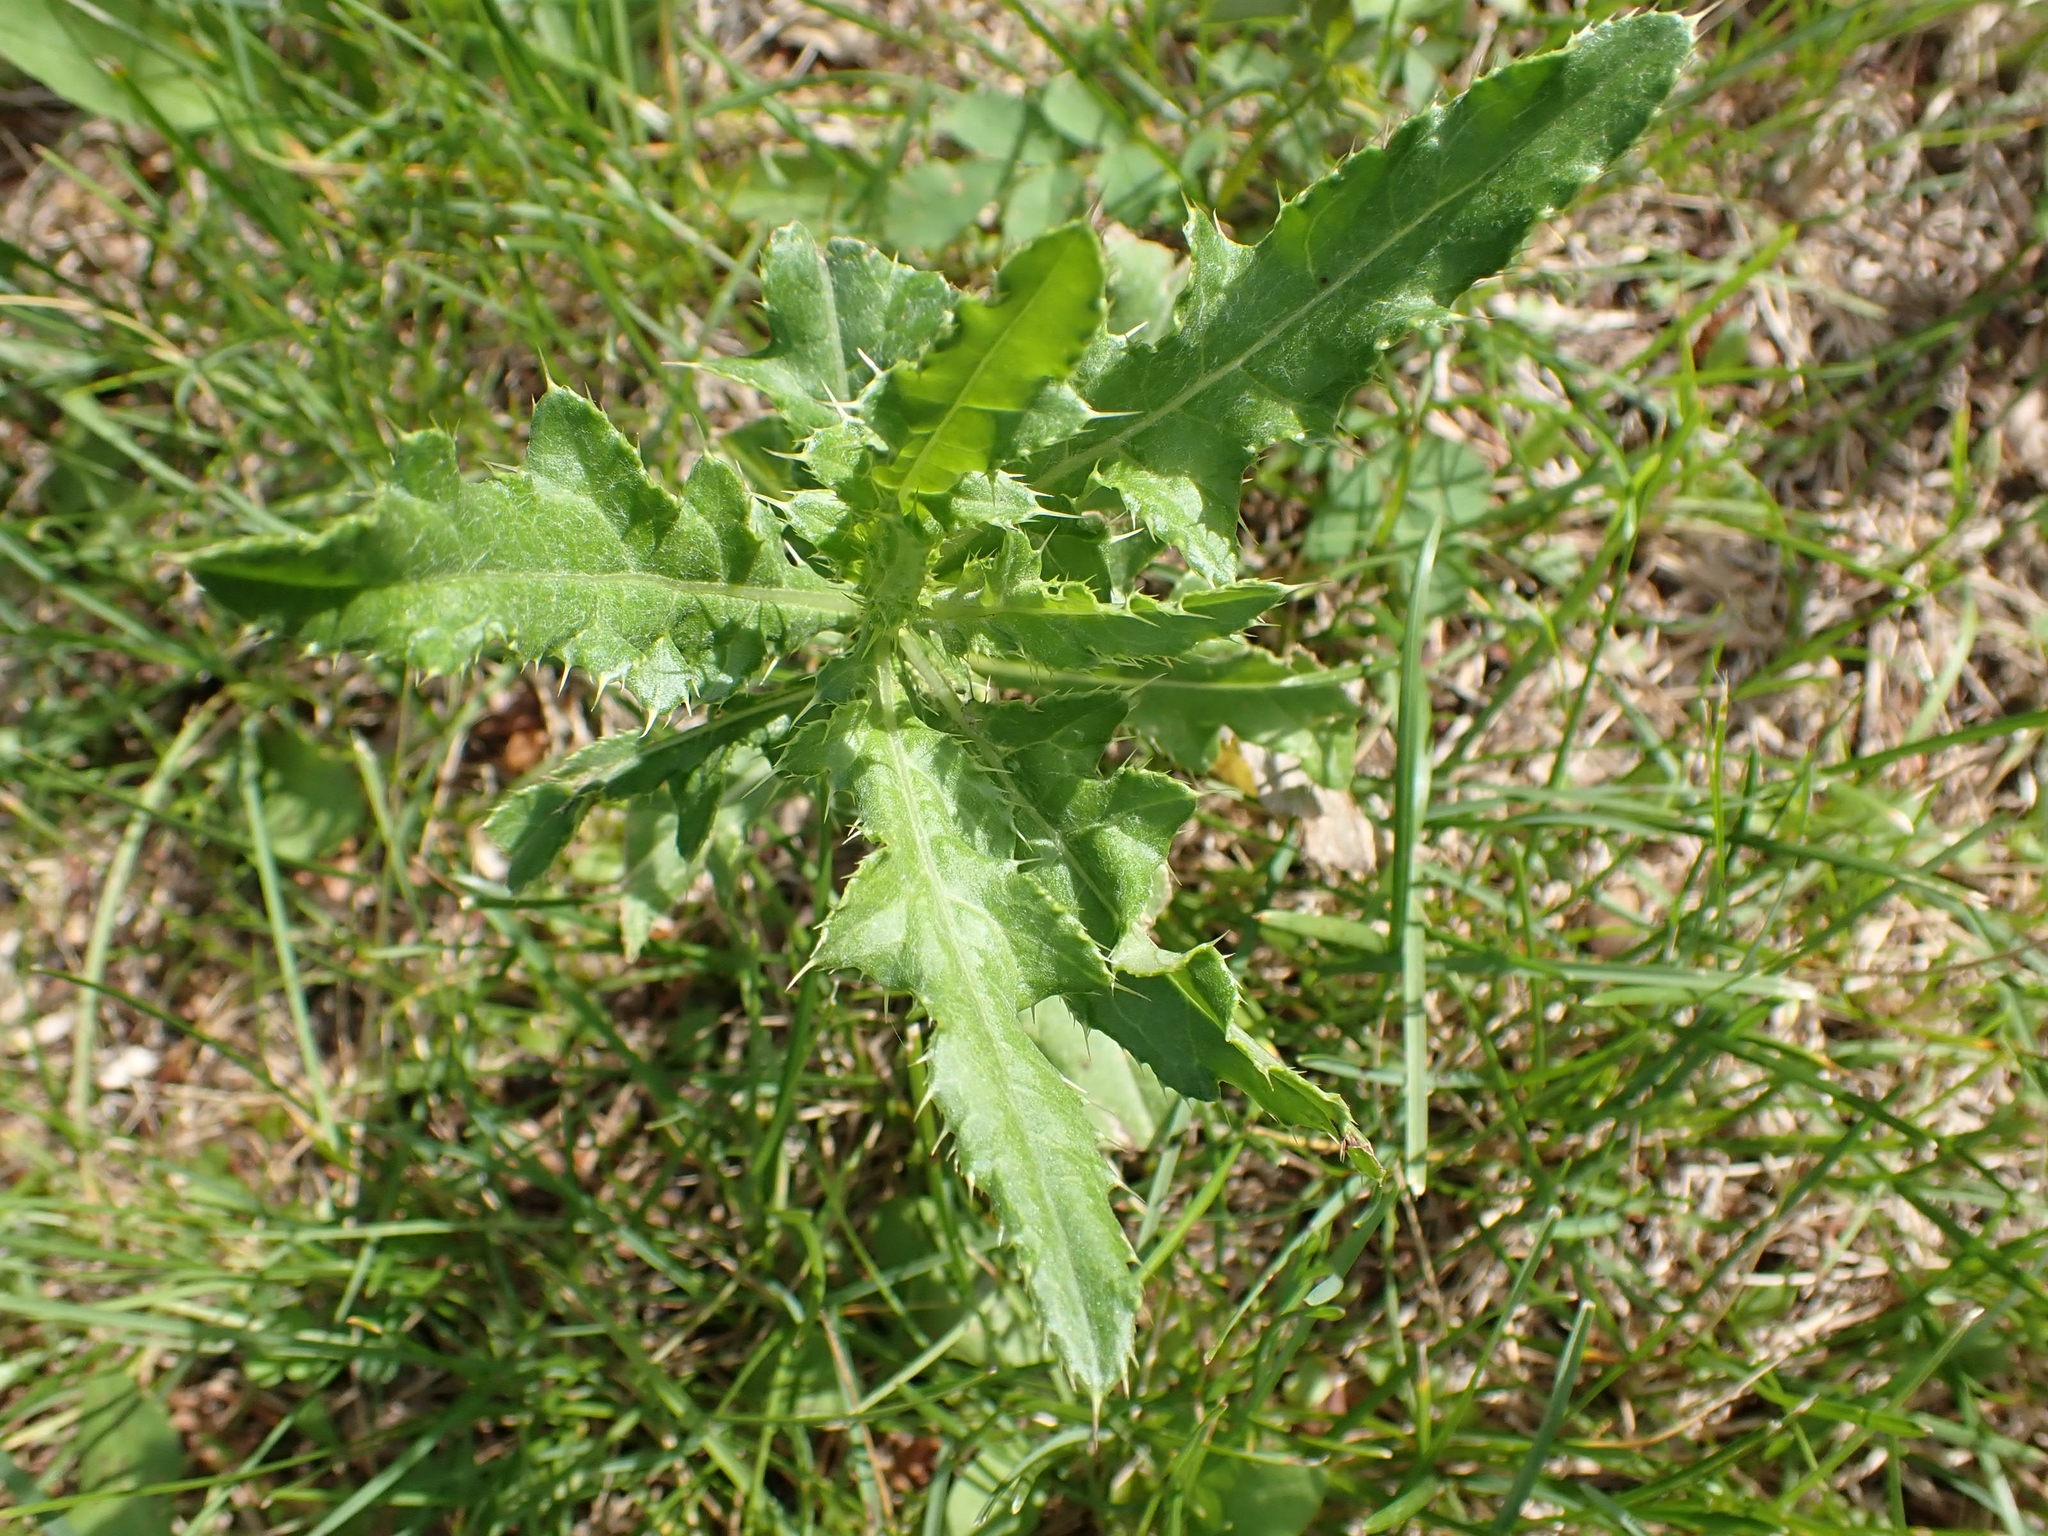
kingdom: Plantae
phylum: Tracheophyta
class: Magnoliopsida
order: Asterales
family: Asteraceae
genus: Cirsium
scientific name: Cirsium arvense
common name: Creeping thistle
